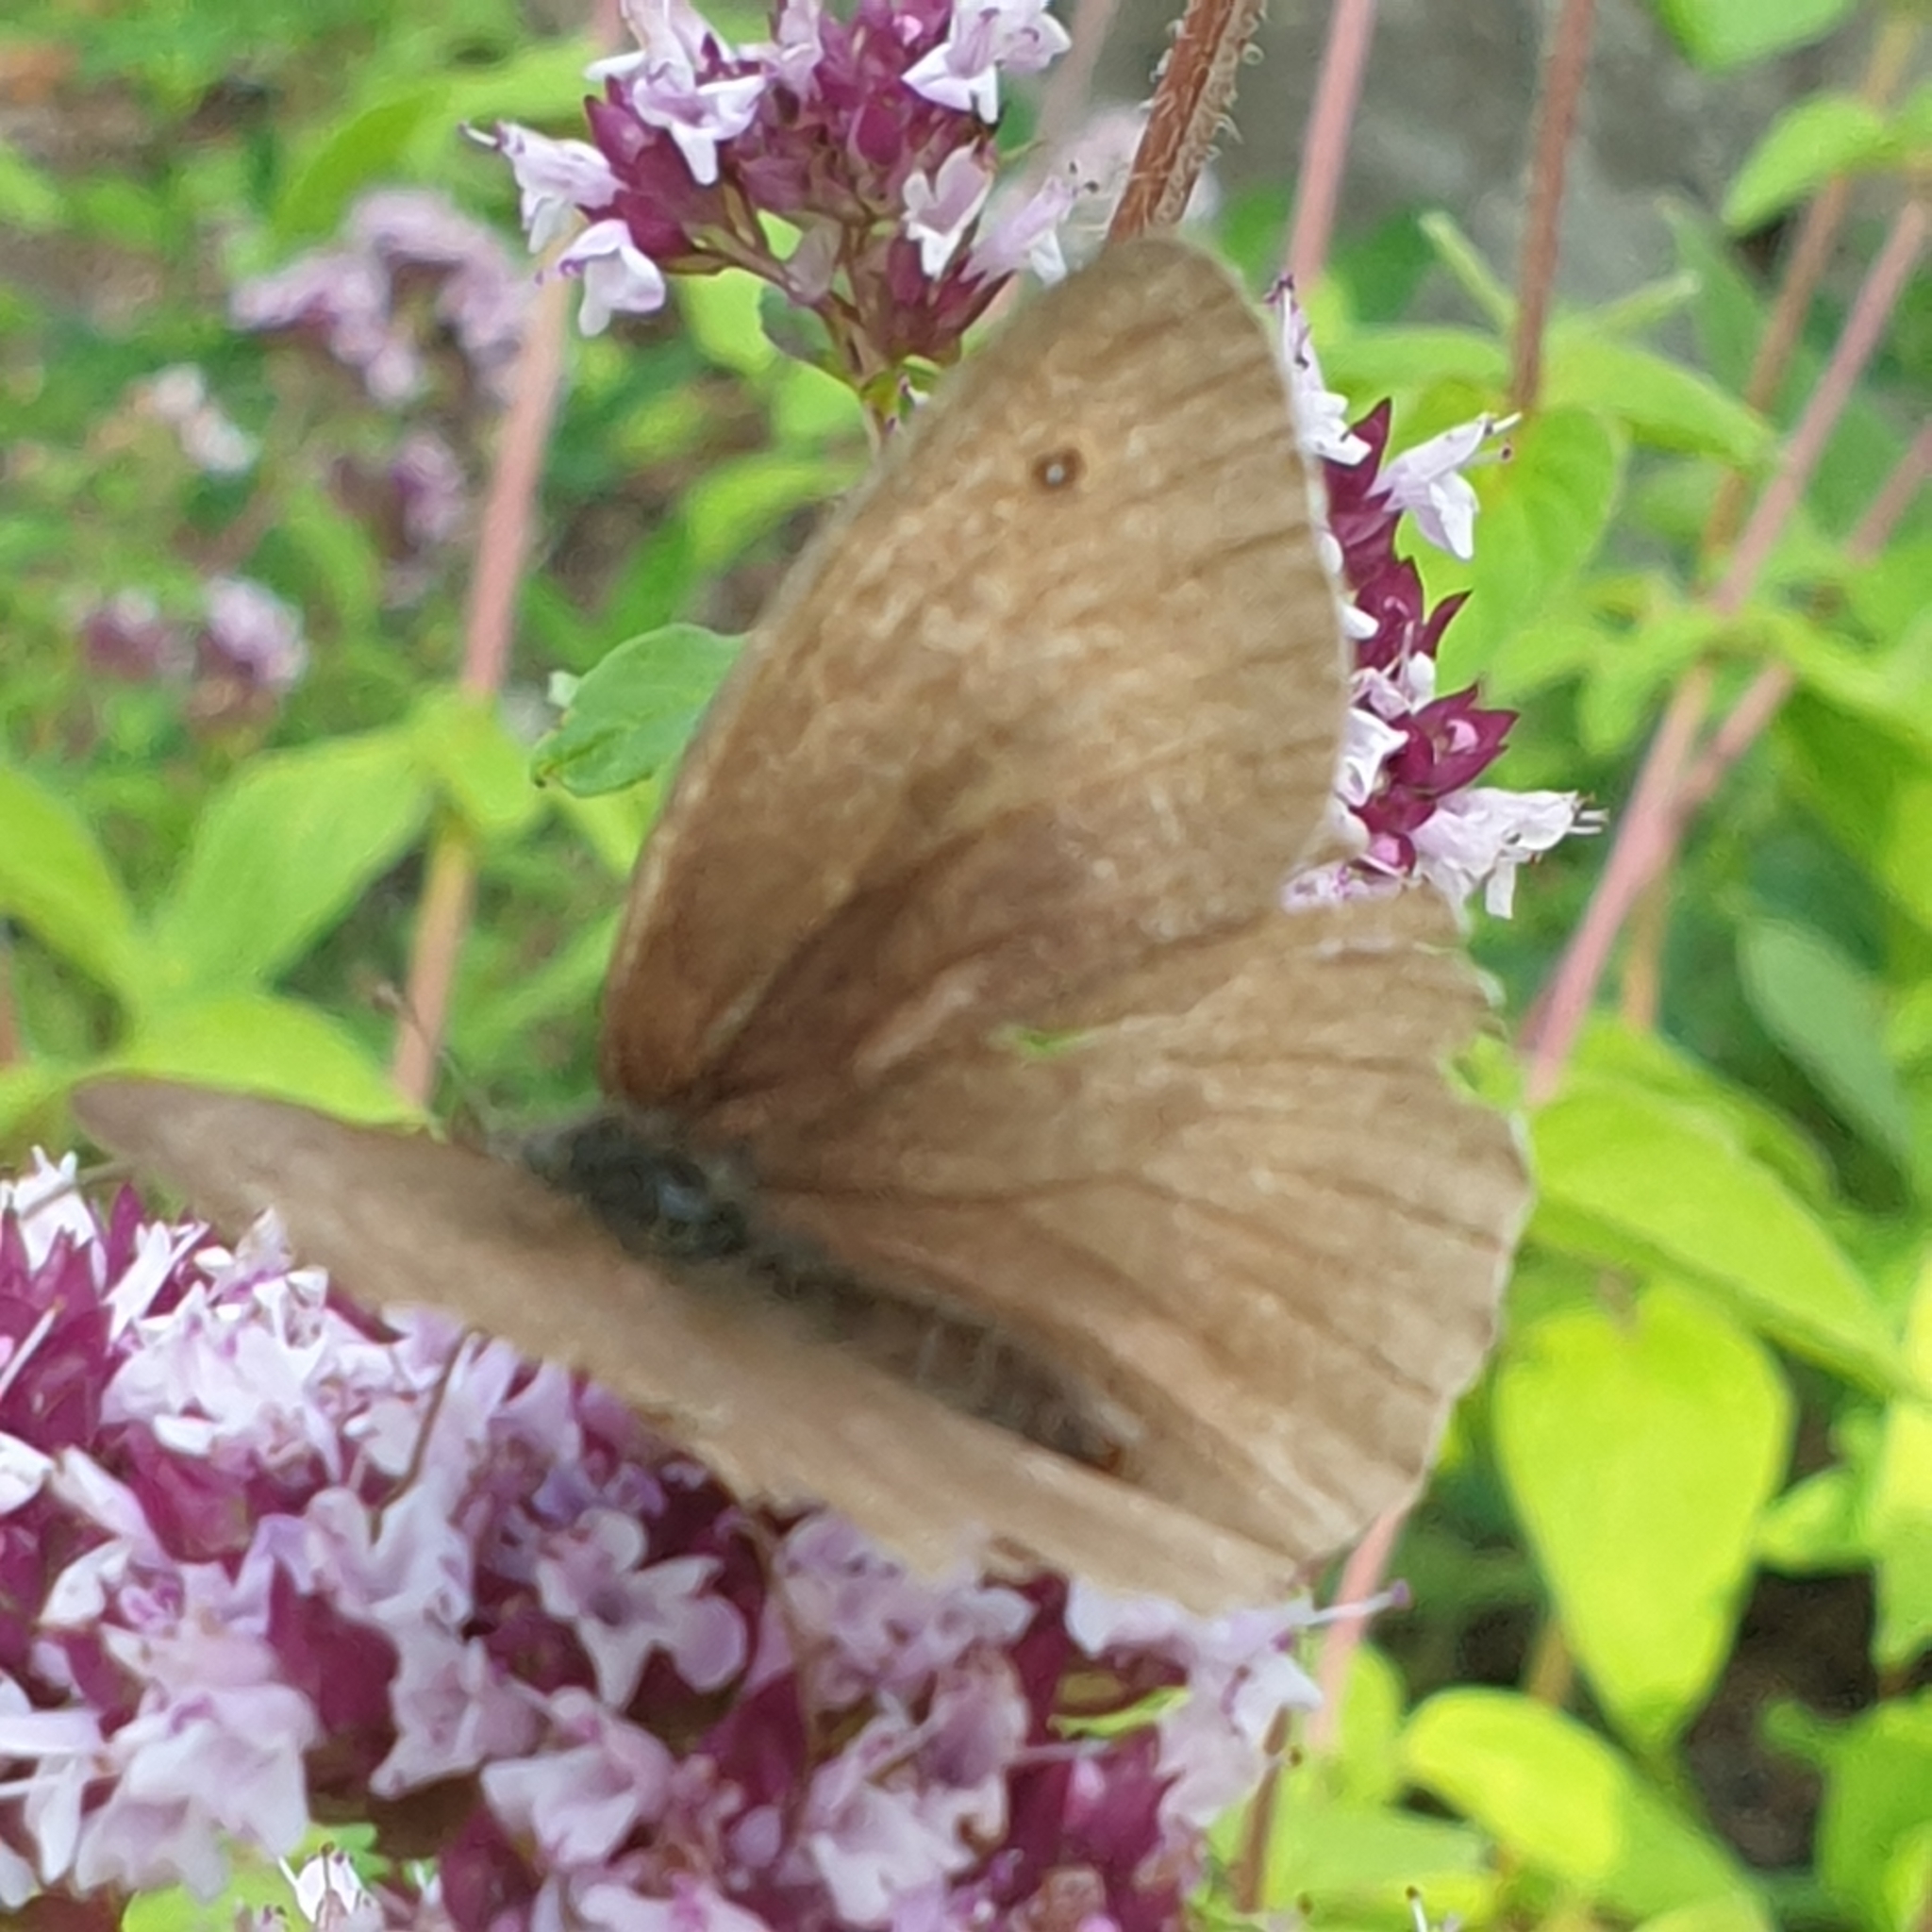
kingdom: Animalia
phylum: Arthropoda
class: Insecta
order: Lepidoptera
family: Nymphalidae
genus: Maniola
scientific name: Maniola jurtina
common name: Meadow brown
